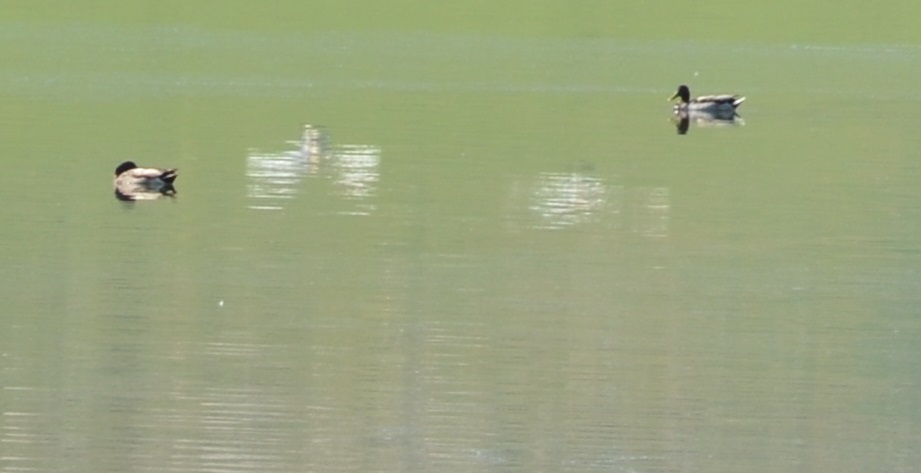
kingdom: Animalia
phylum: Chordata
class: Aves
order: Anseriformes
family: Anatidae
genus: Anas
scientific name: Anas platyrhynchos
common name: Mallard
